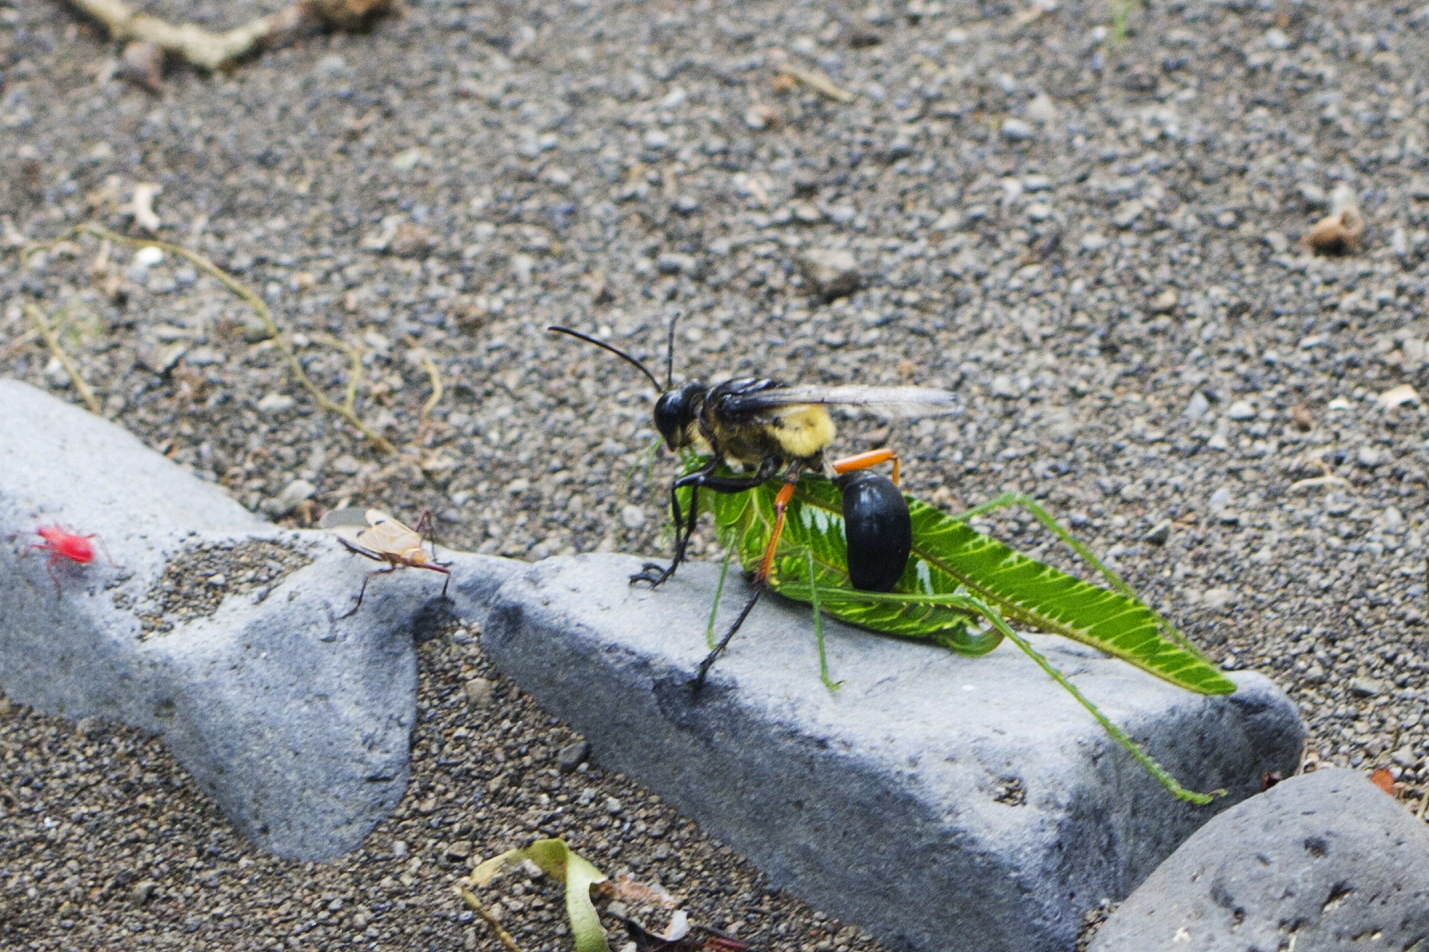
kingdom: Animalia
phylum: Arthropoda
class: Insecta
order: Hymenoptera
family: Sphecidae
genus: Sphex
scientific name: Sphex tomentosus
